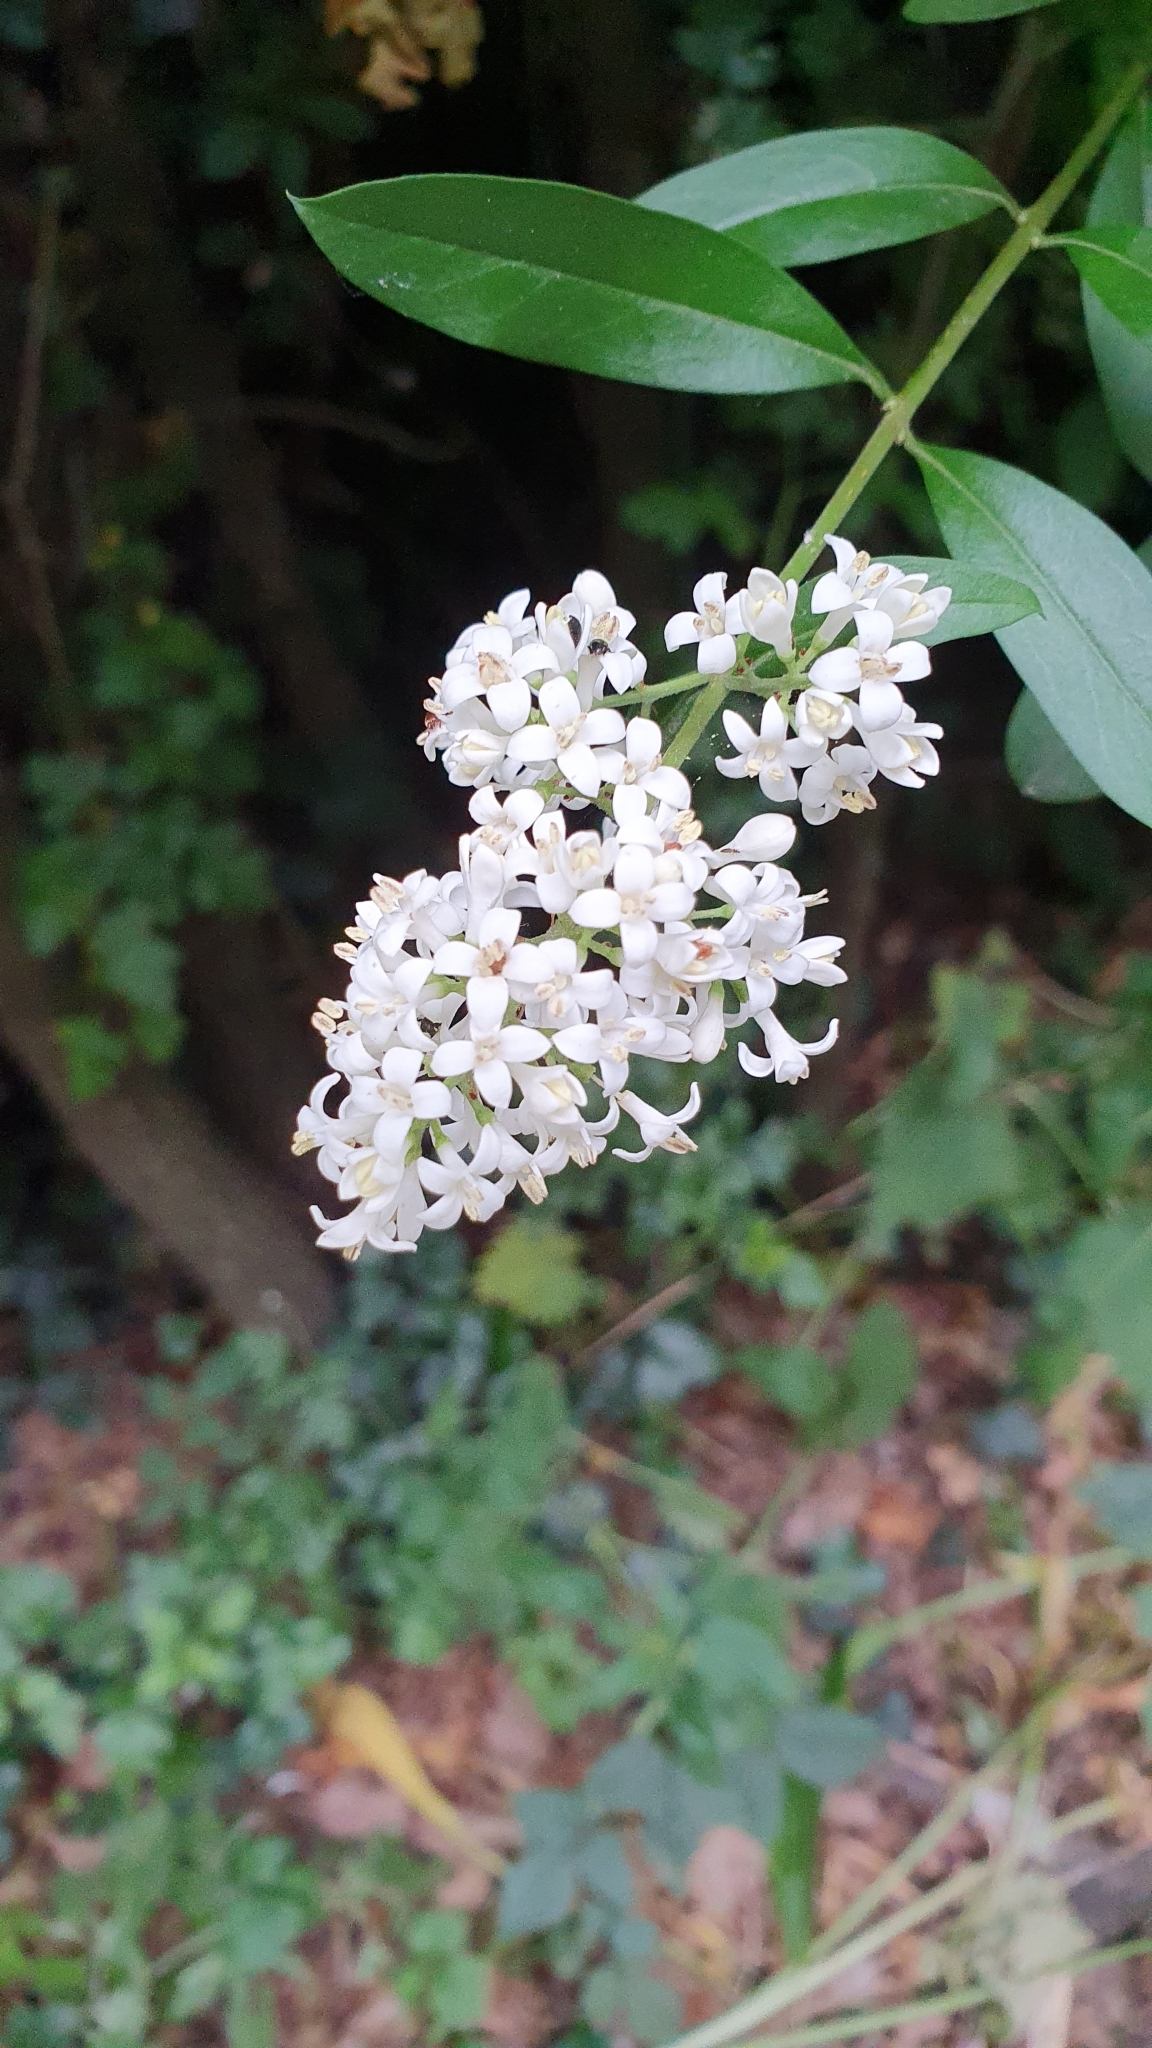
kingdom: Plantae
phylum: Tracheophyta
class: Magnoliopsida
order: Lamiales
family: Oleaceae
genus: Ligustrum
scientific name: Ligustrum vulgare
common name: Wild privet
